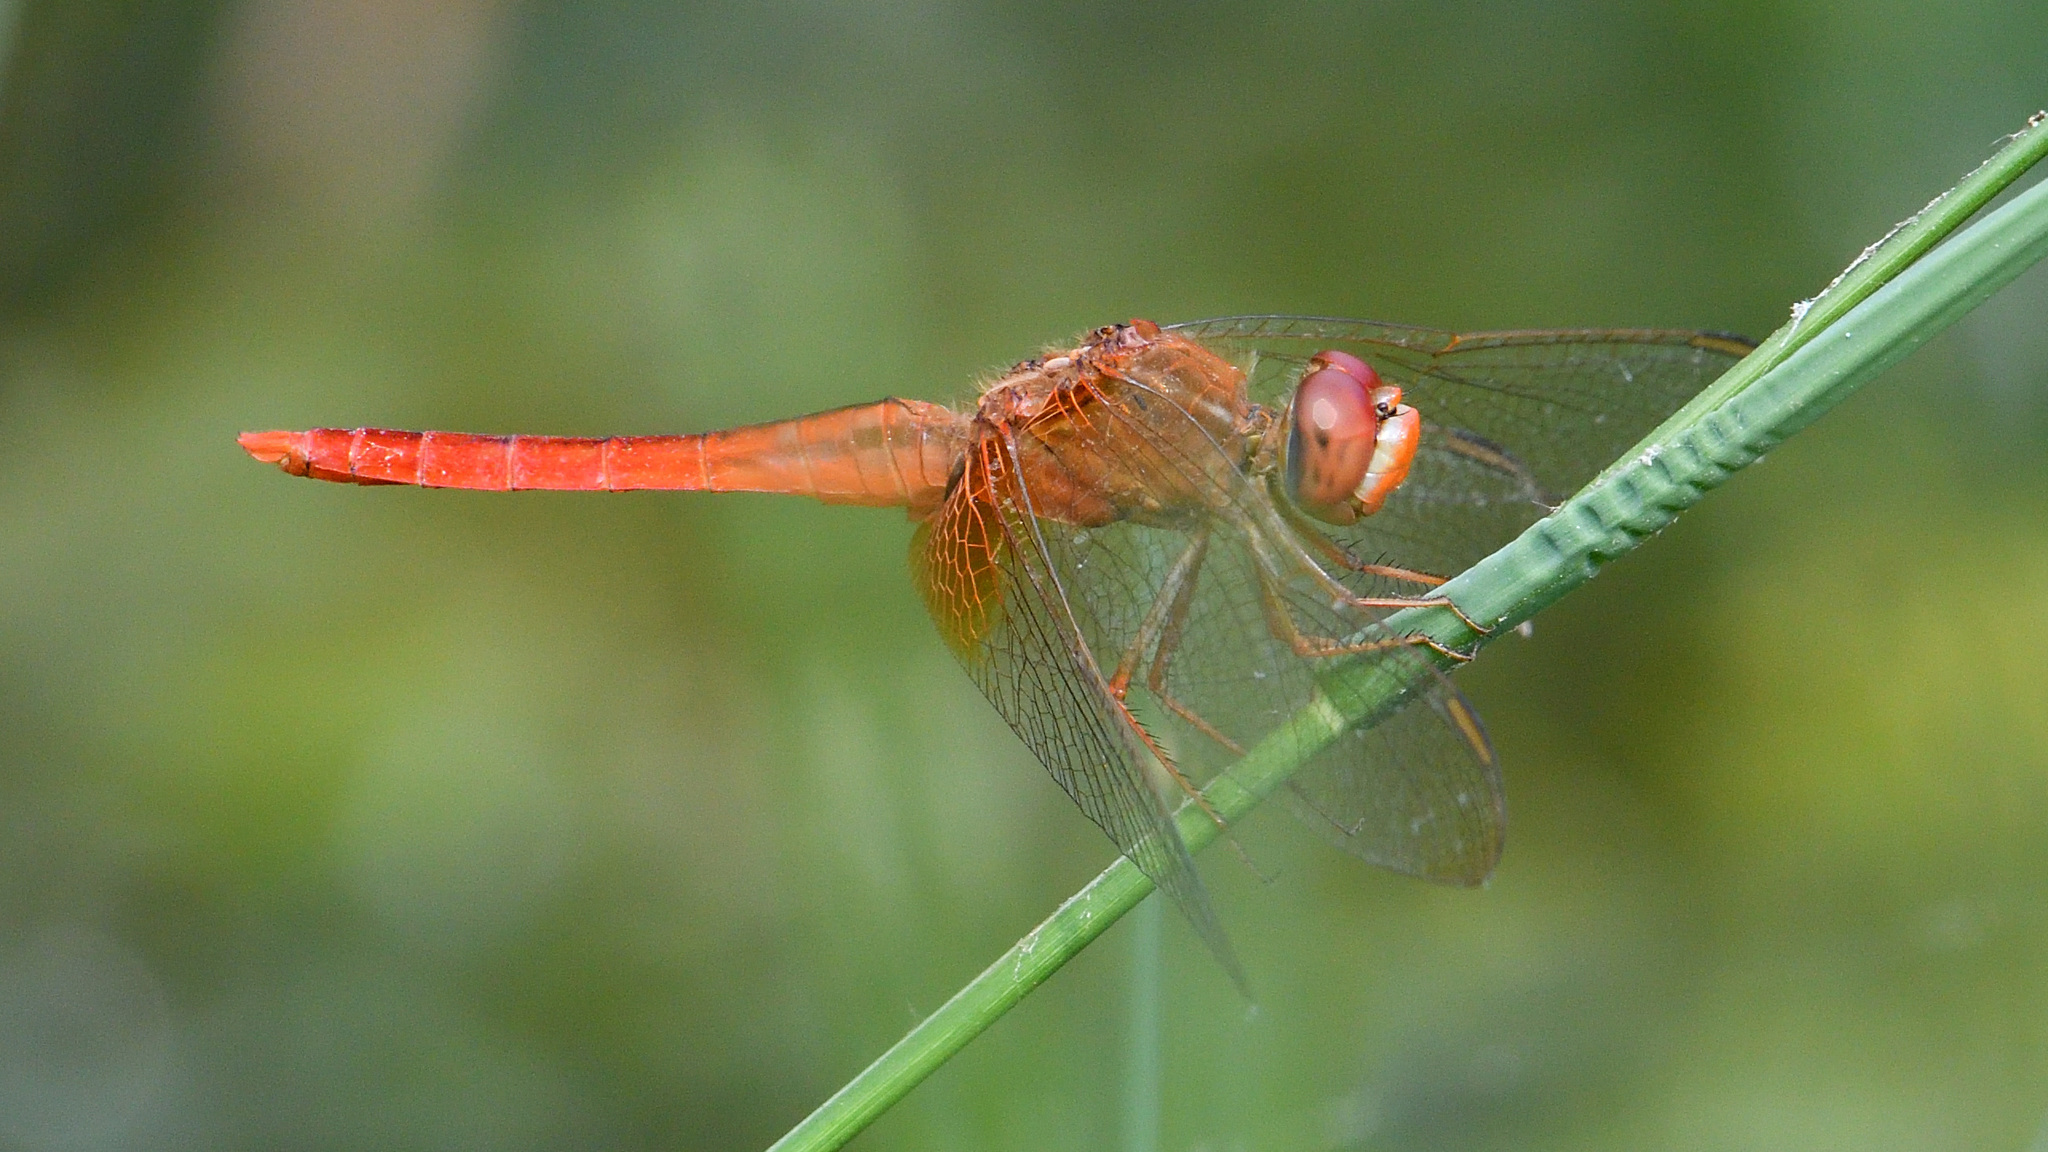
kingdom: Animalia
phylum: Arthropoda
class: Insecta
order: Odonata
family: Libellulidae
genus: Crocothemis
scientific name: Crocothemis servilia
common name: Scarlet skimmer
